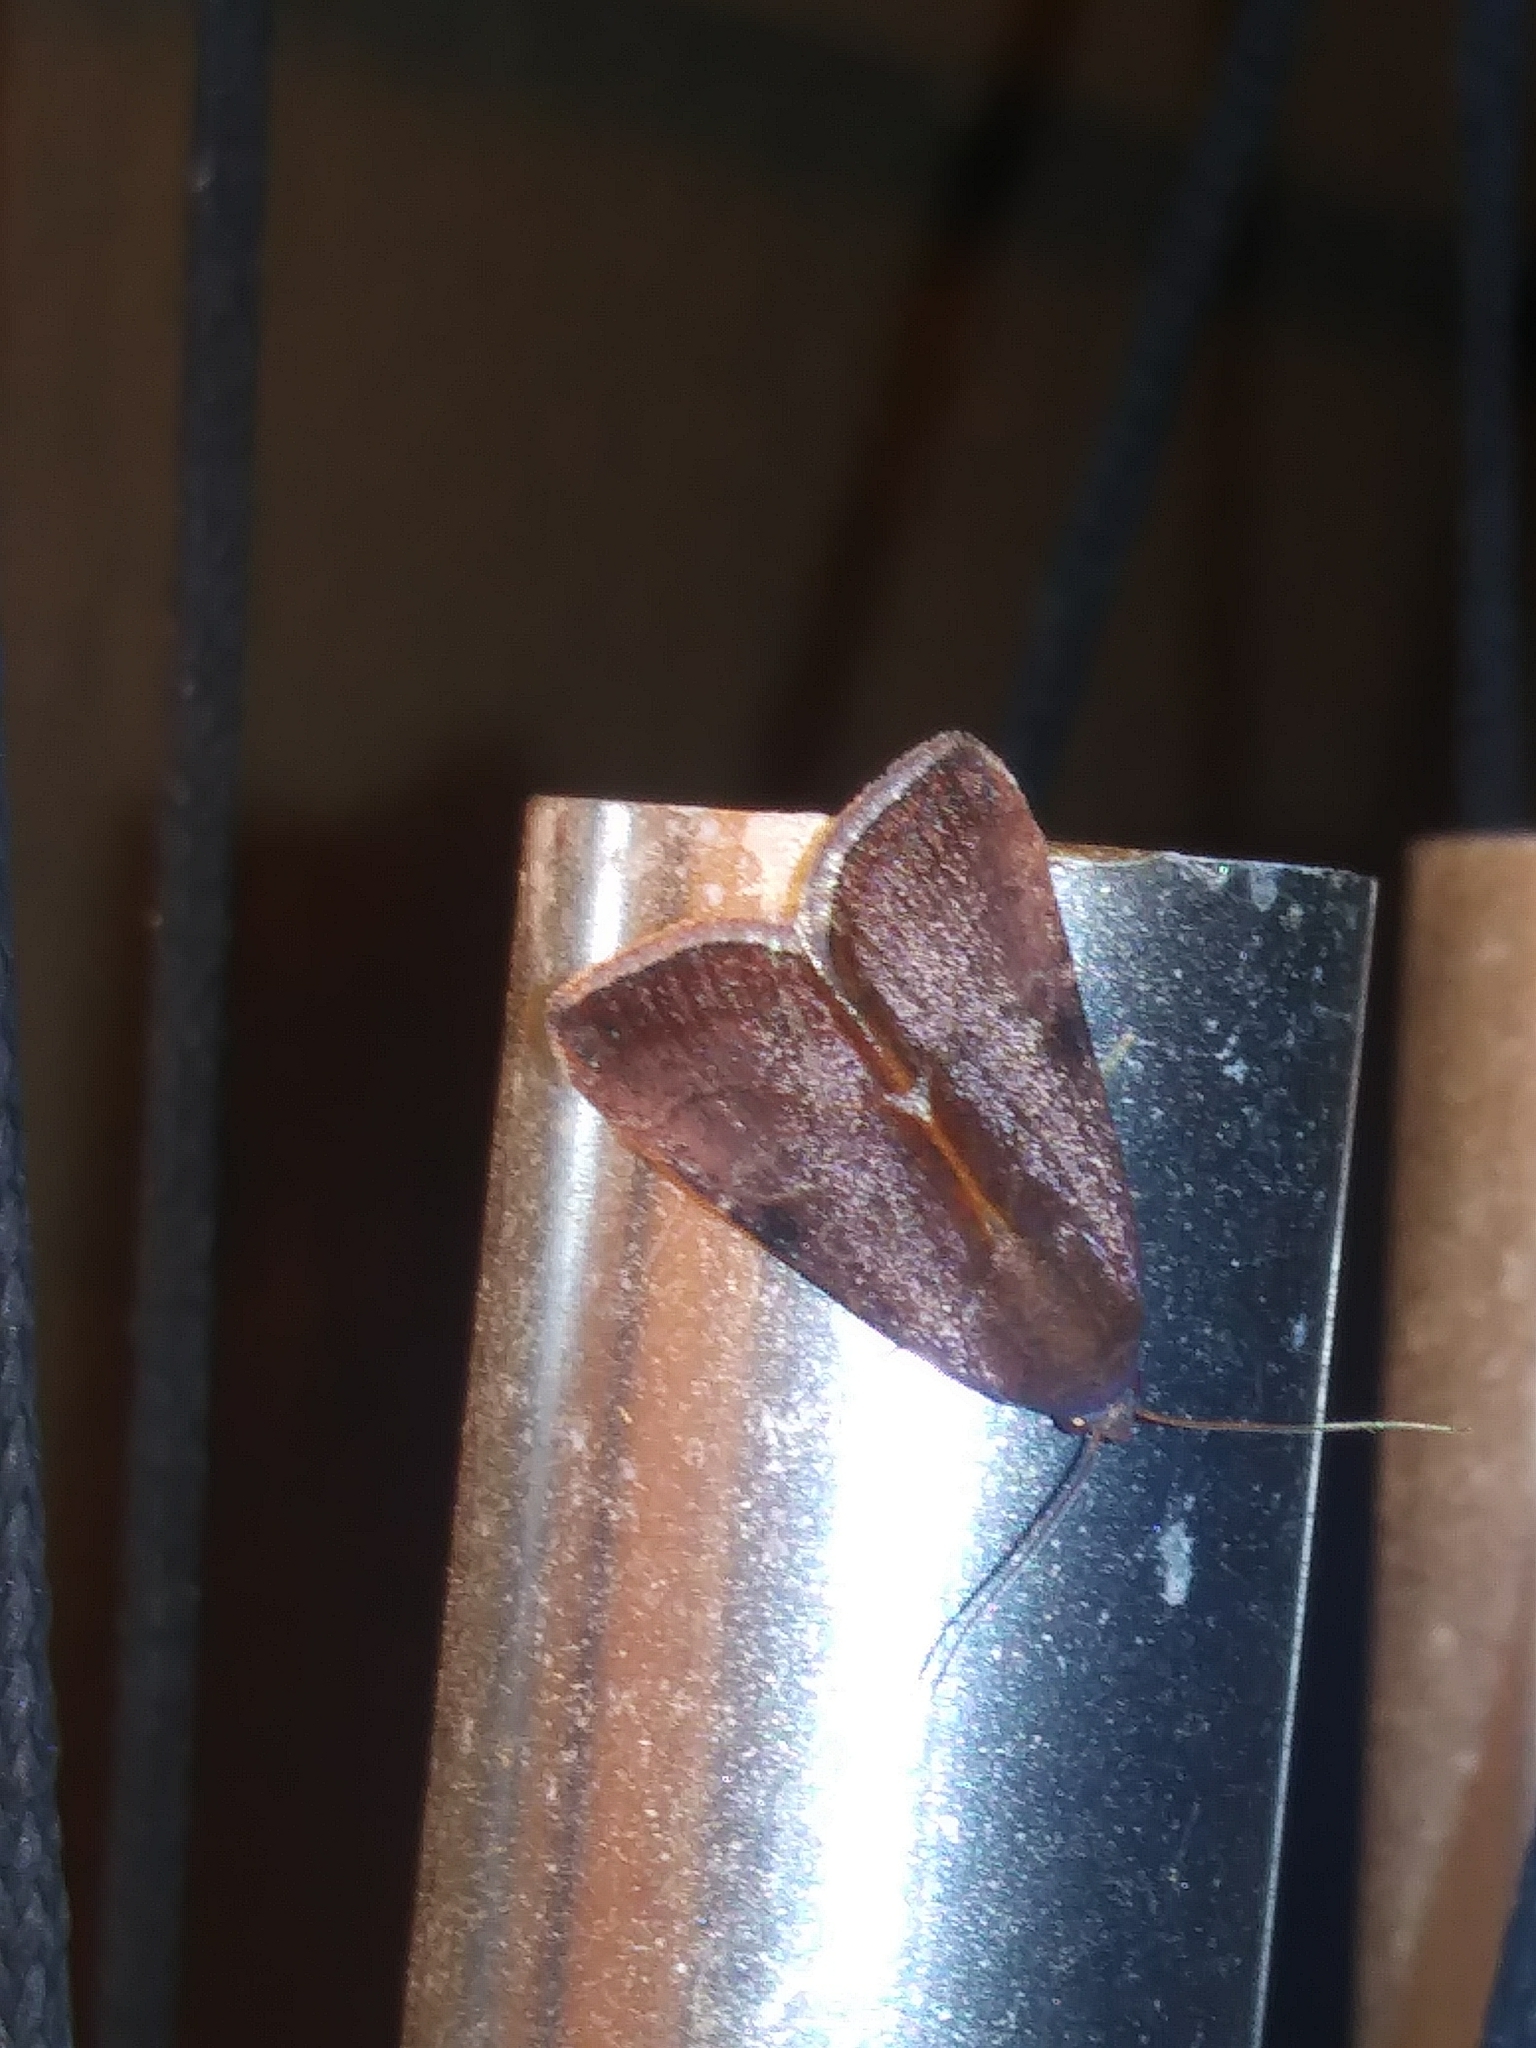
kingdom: Animalia
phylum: Arthropoda
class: Insecta
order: Lepidoptera
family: Noctuidae
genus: Galgula
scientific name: Galgula partita
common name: Wedgeling
